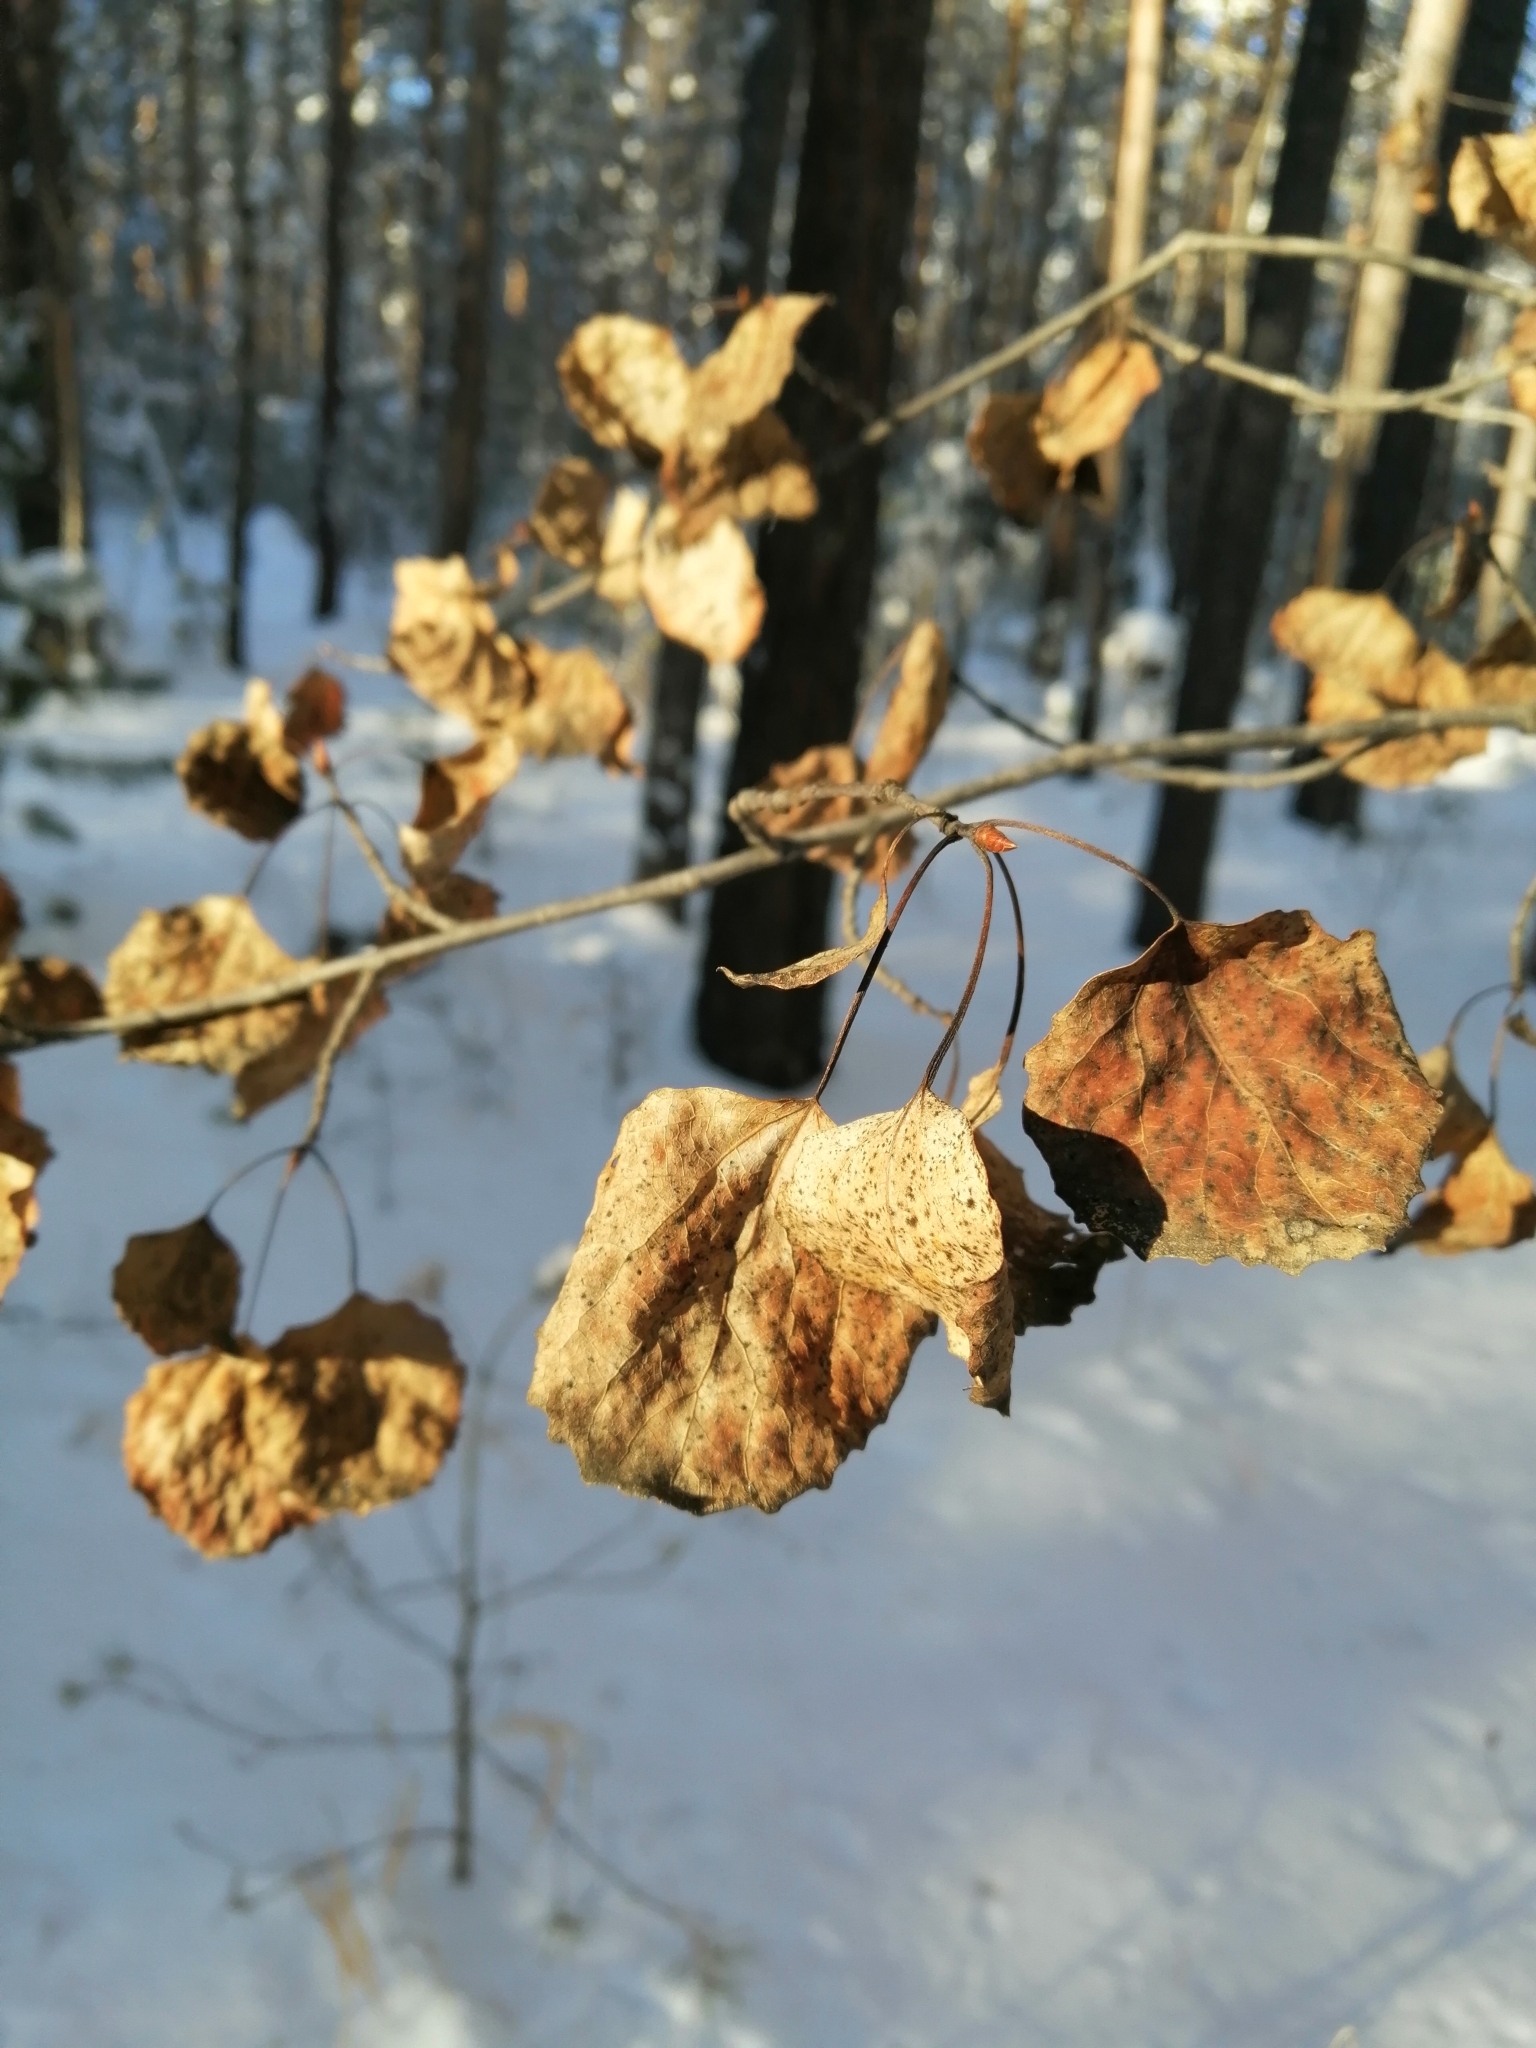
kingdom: Plantae
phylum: Tracheophyta
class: Magnoliopsida
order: Malpighiales
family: Salicaceae
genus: Populus
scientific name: Populus tremula
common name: European aspen
